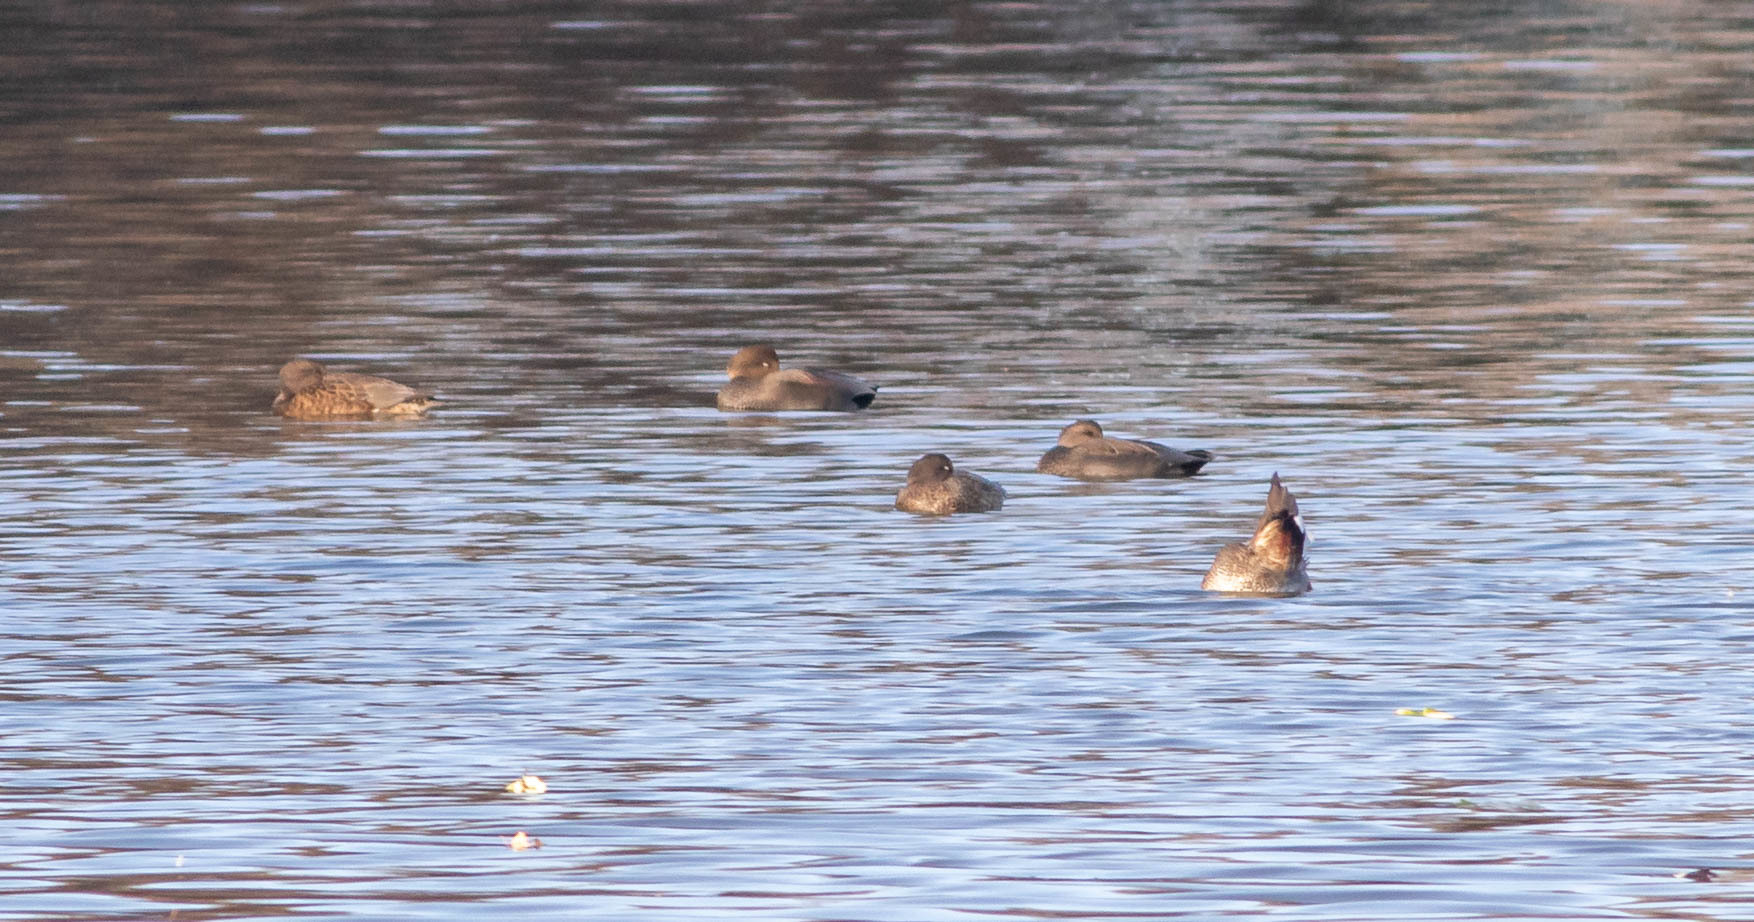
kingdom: Animalia
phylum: Chordata
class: Aves
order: Anseriformes
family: Anatidae
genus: Mareca
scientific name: Mareca strepera
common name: Gadwall
